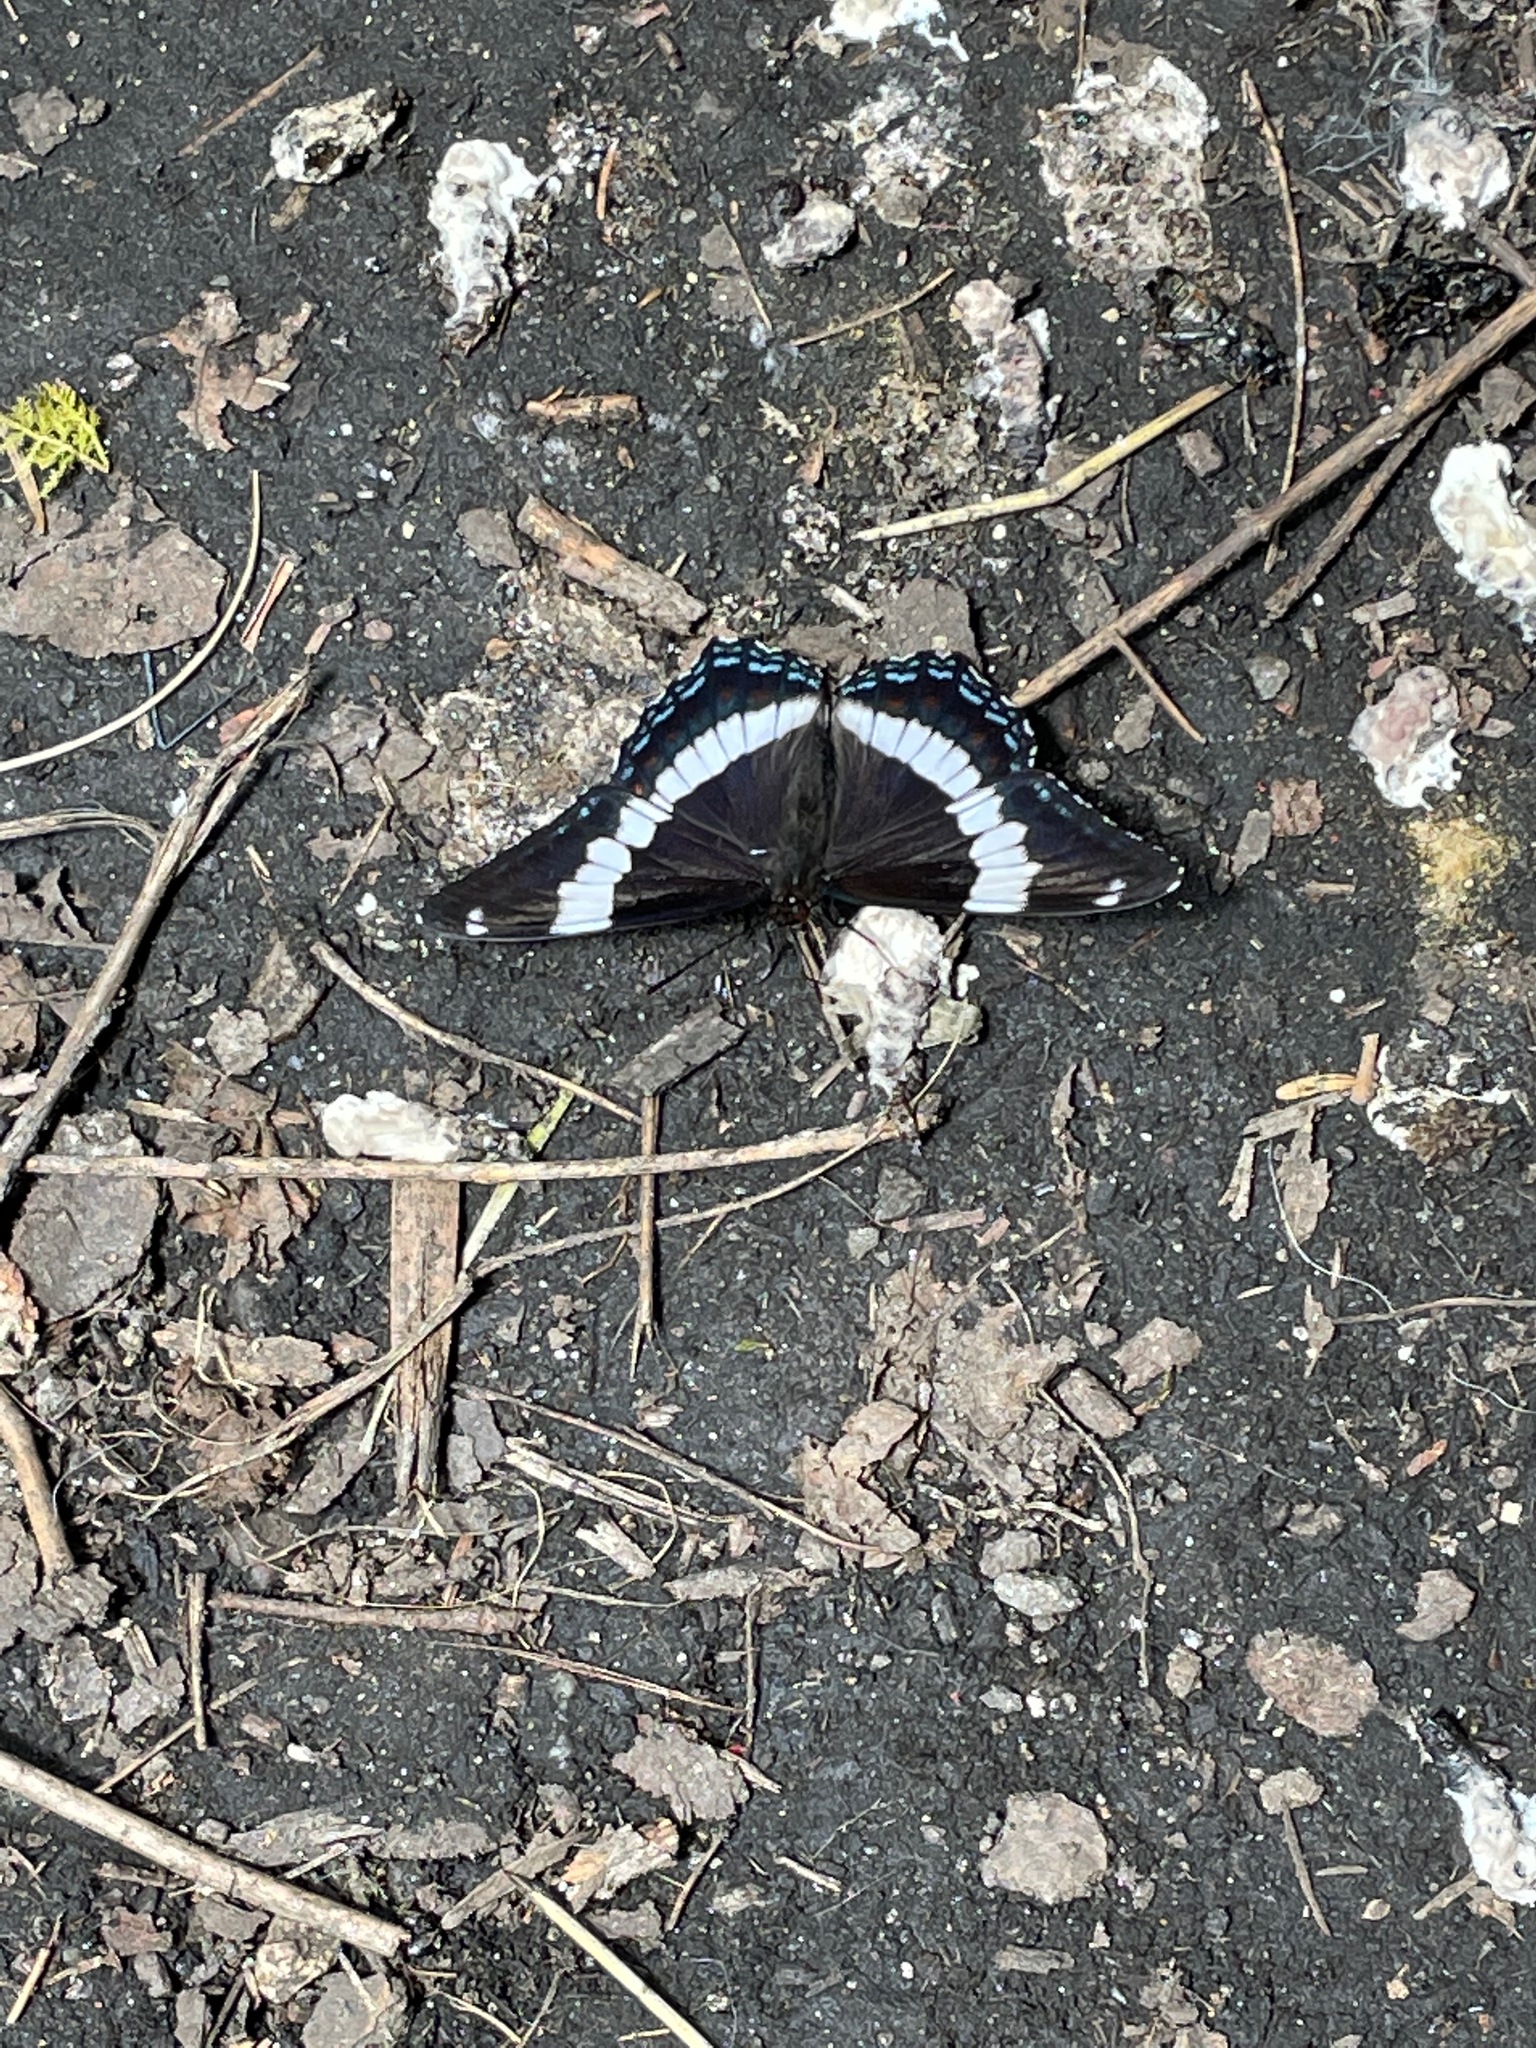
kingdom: Animalia
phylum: Arthropoda
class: Insecta
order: Lepidoptera
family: Nymphalidae
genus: Limenitis
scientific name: Limenitis arthemis
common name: Red-spotted admiral
